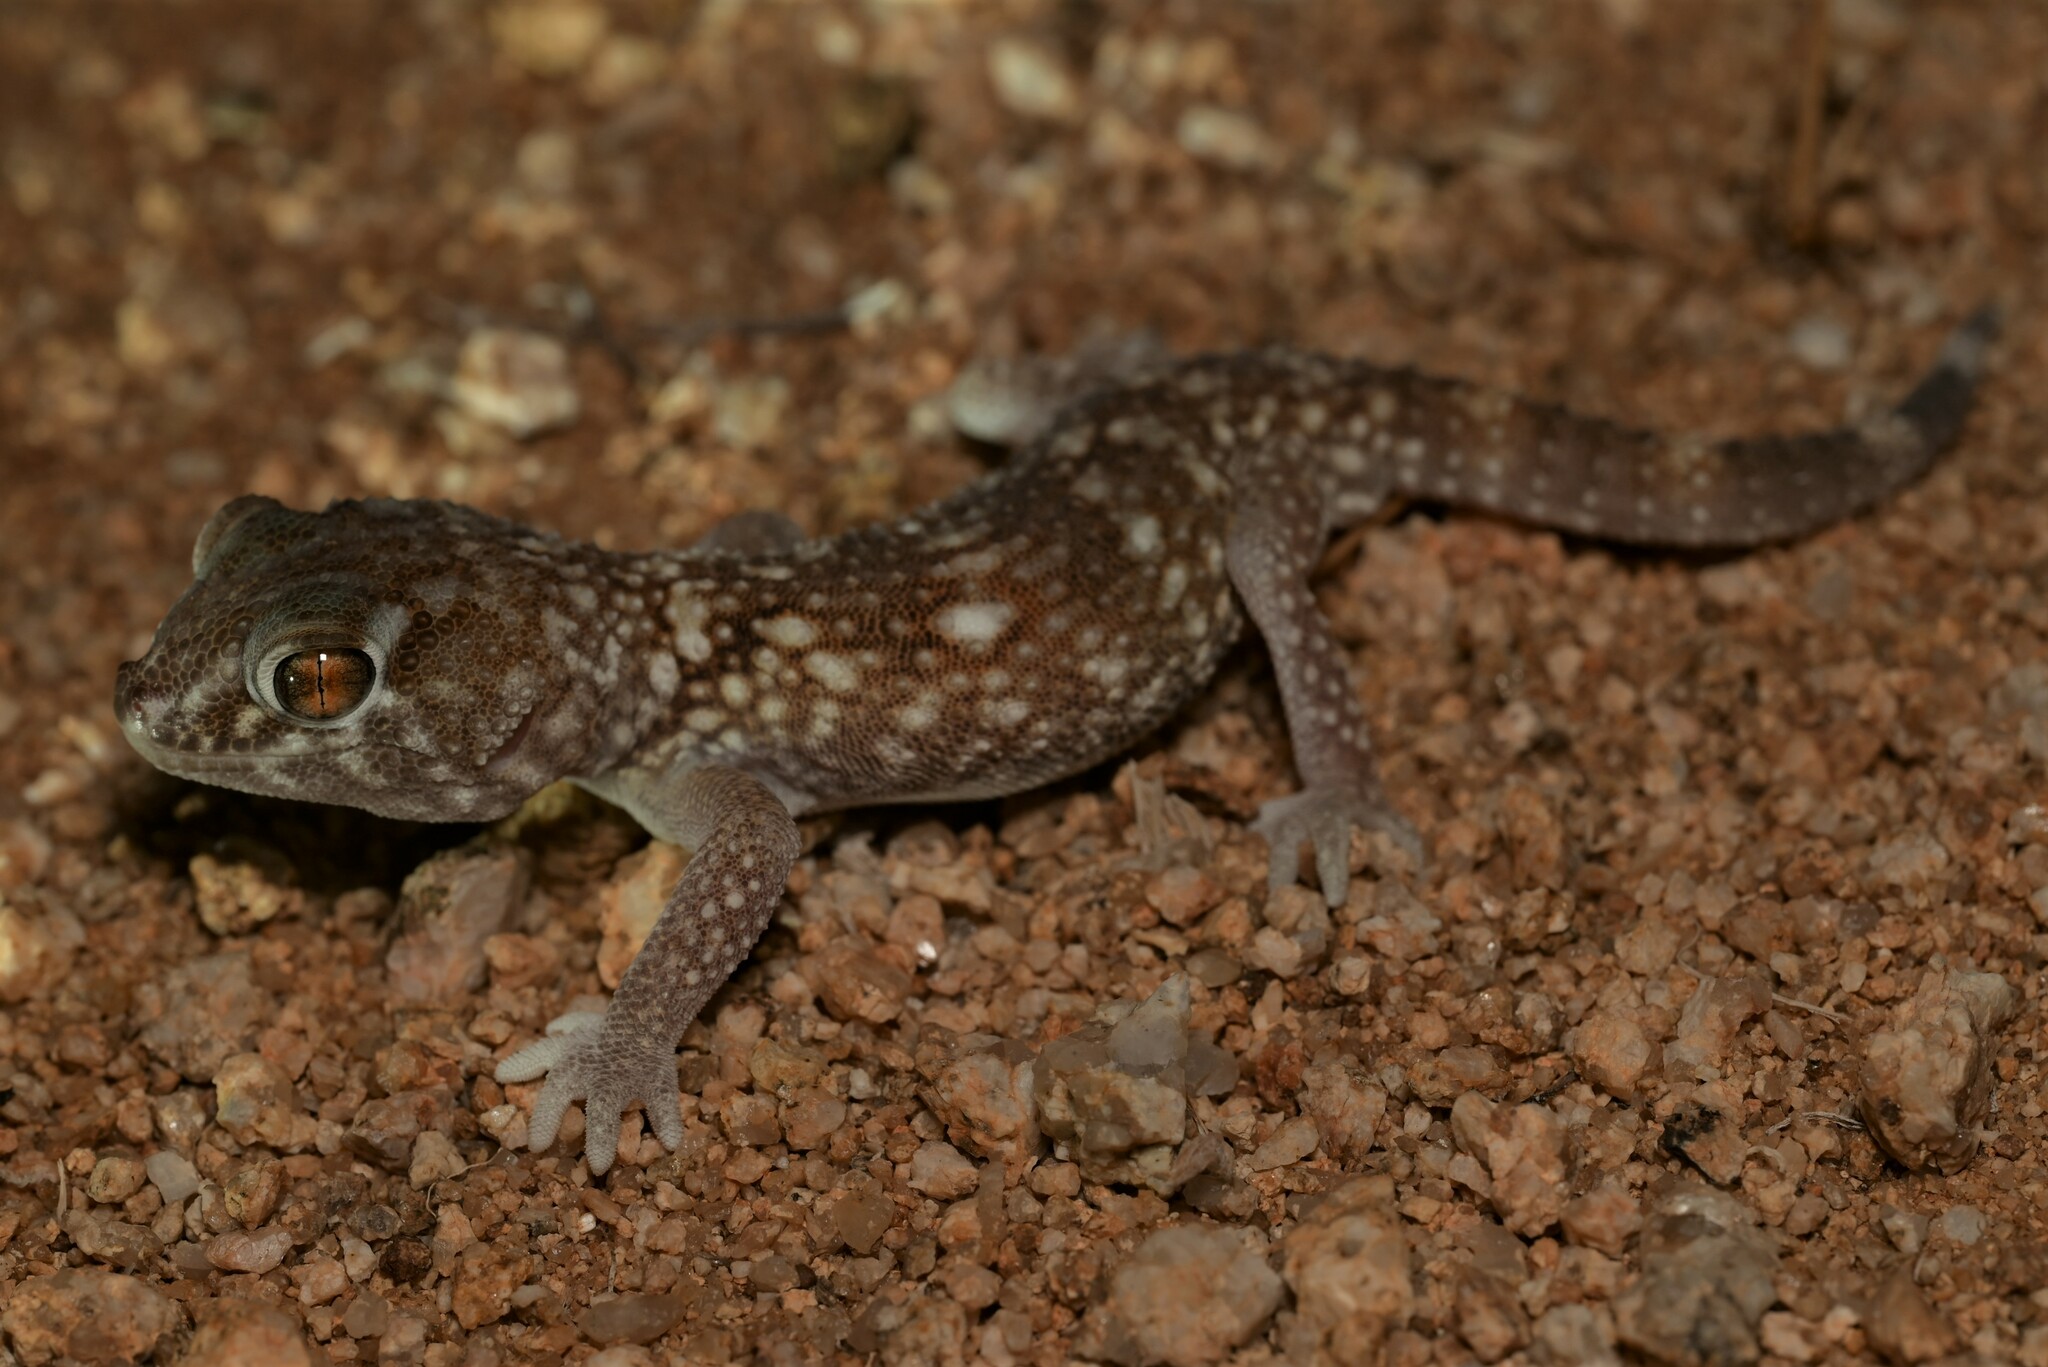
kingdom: Animalia
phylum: Chordata
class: Squamata
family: Gekkonidae
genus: Chondrodactylus
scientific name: Chondrodactylus angulifer
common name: Common giant ground gecko
